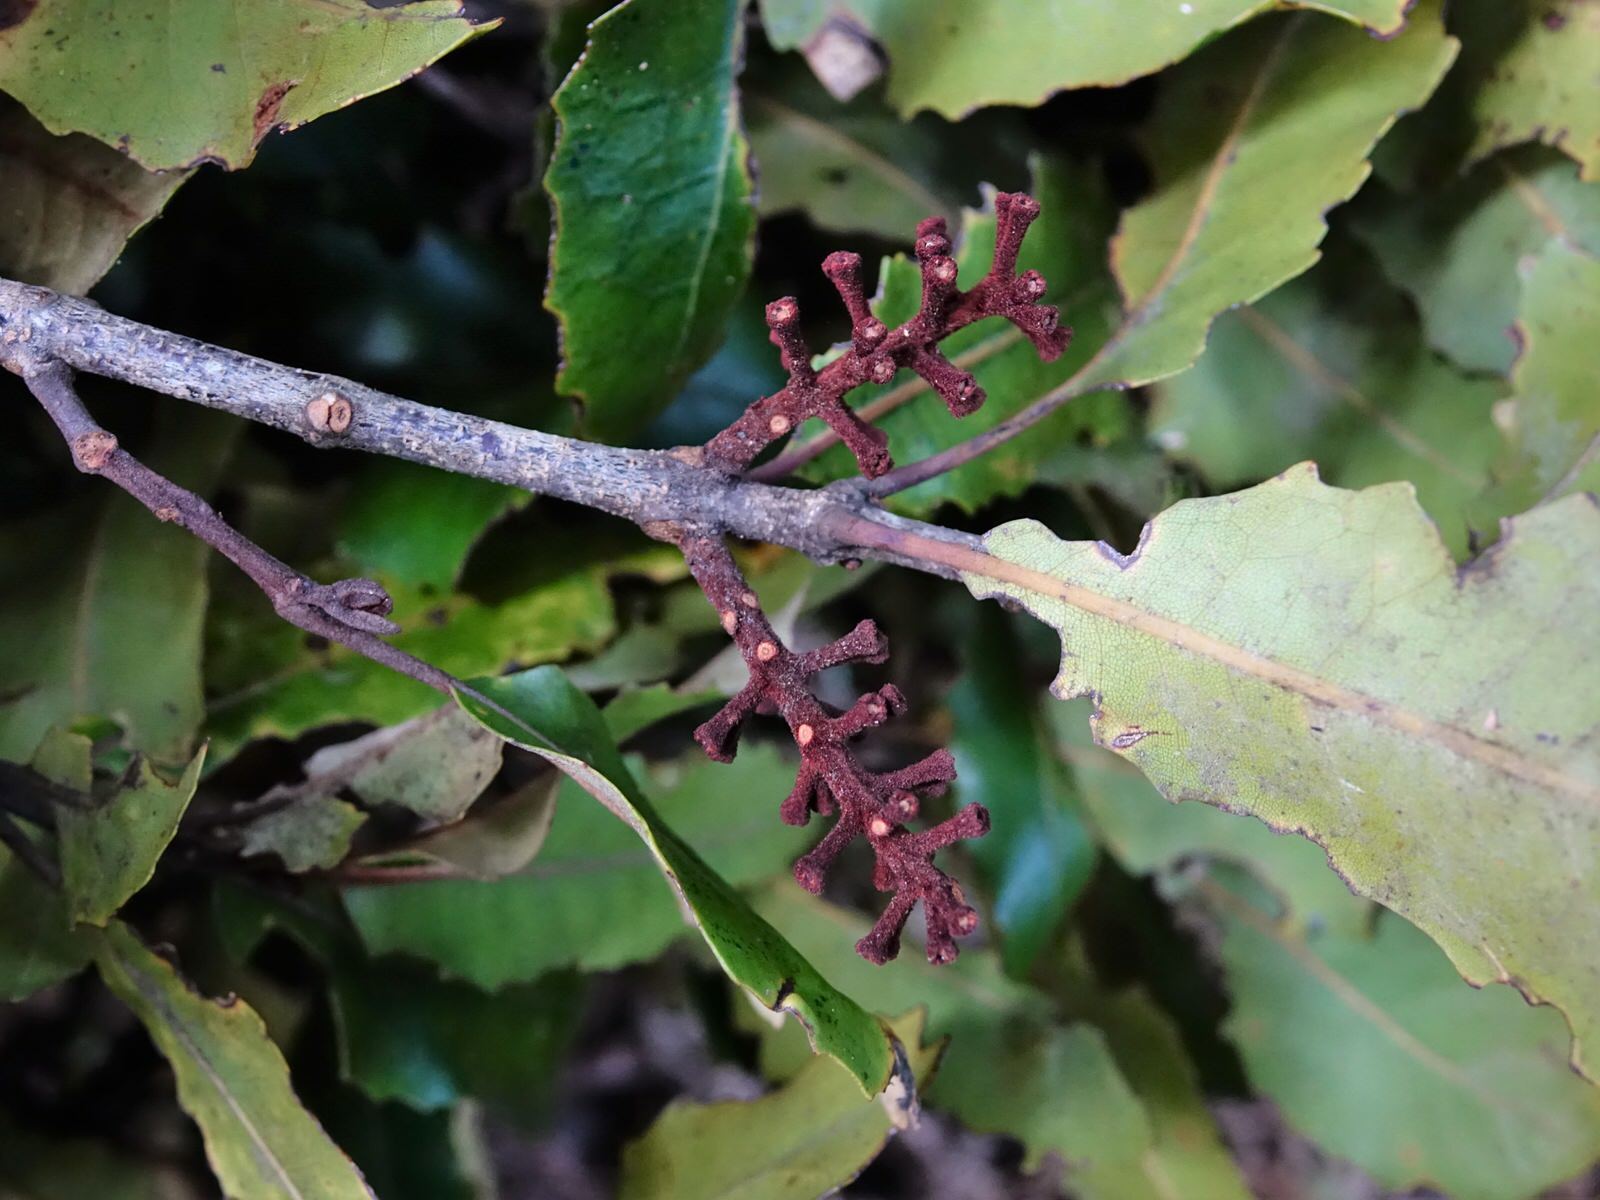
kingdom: Plantae
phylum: Tracheophyta
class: Magnoliopsida
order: Proteales
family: Proteaceae
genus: Knightia
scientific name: Knightia excelsa
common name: New zealand-honeysuckle
